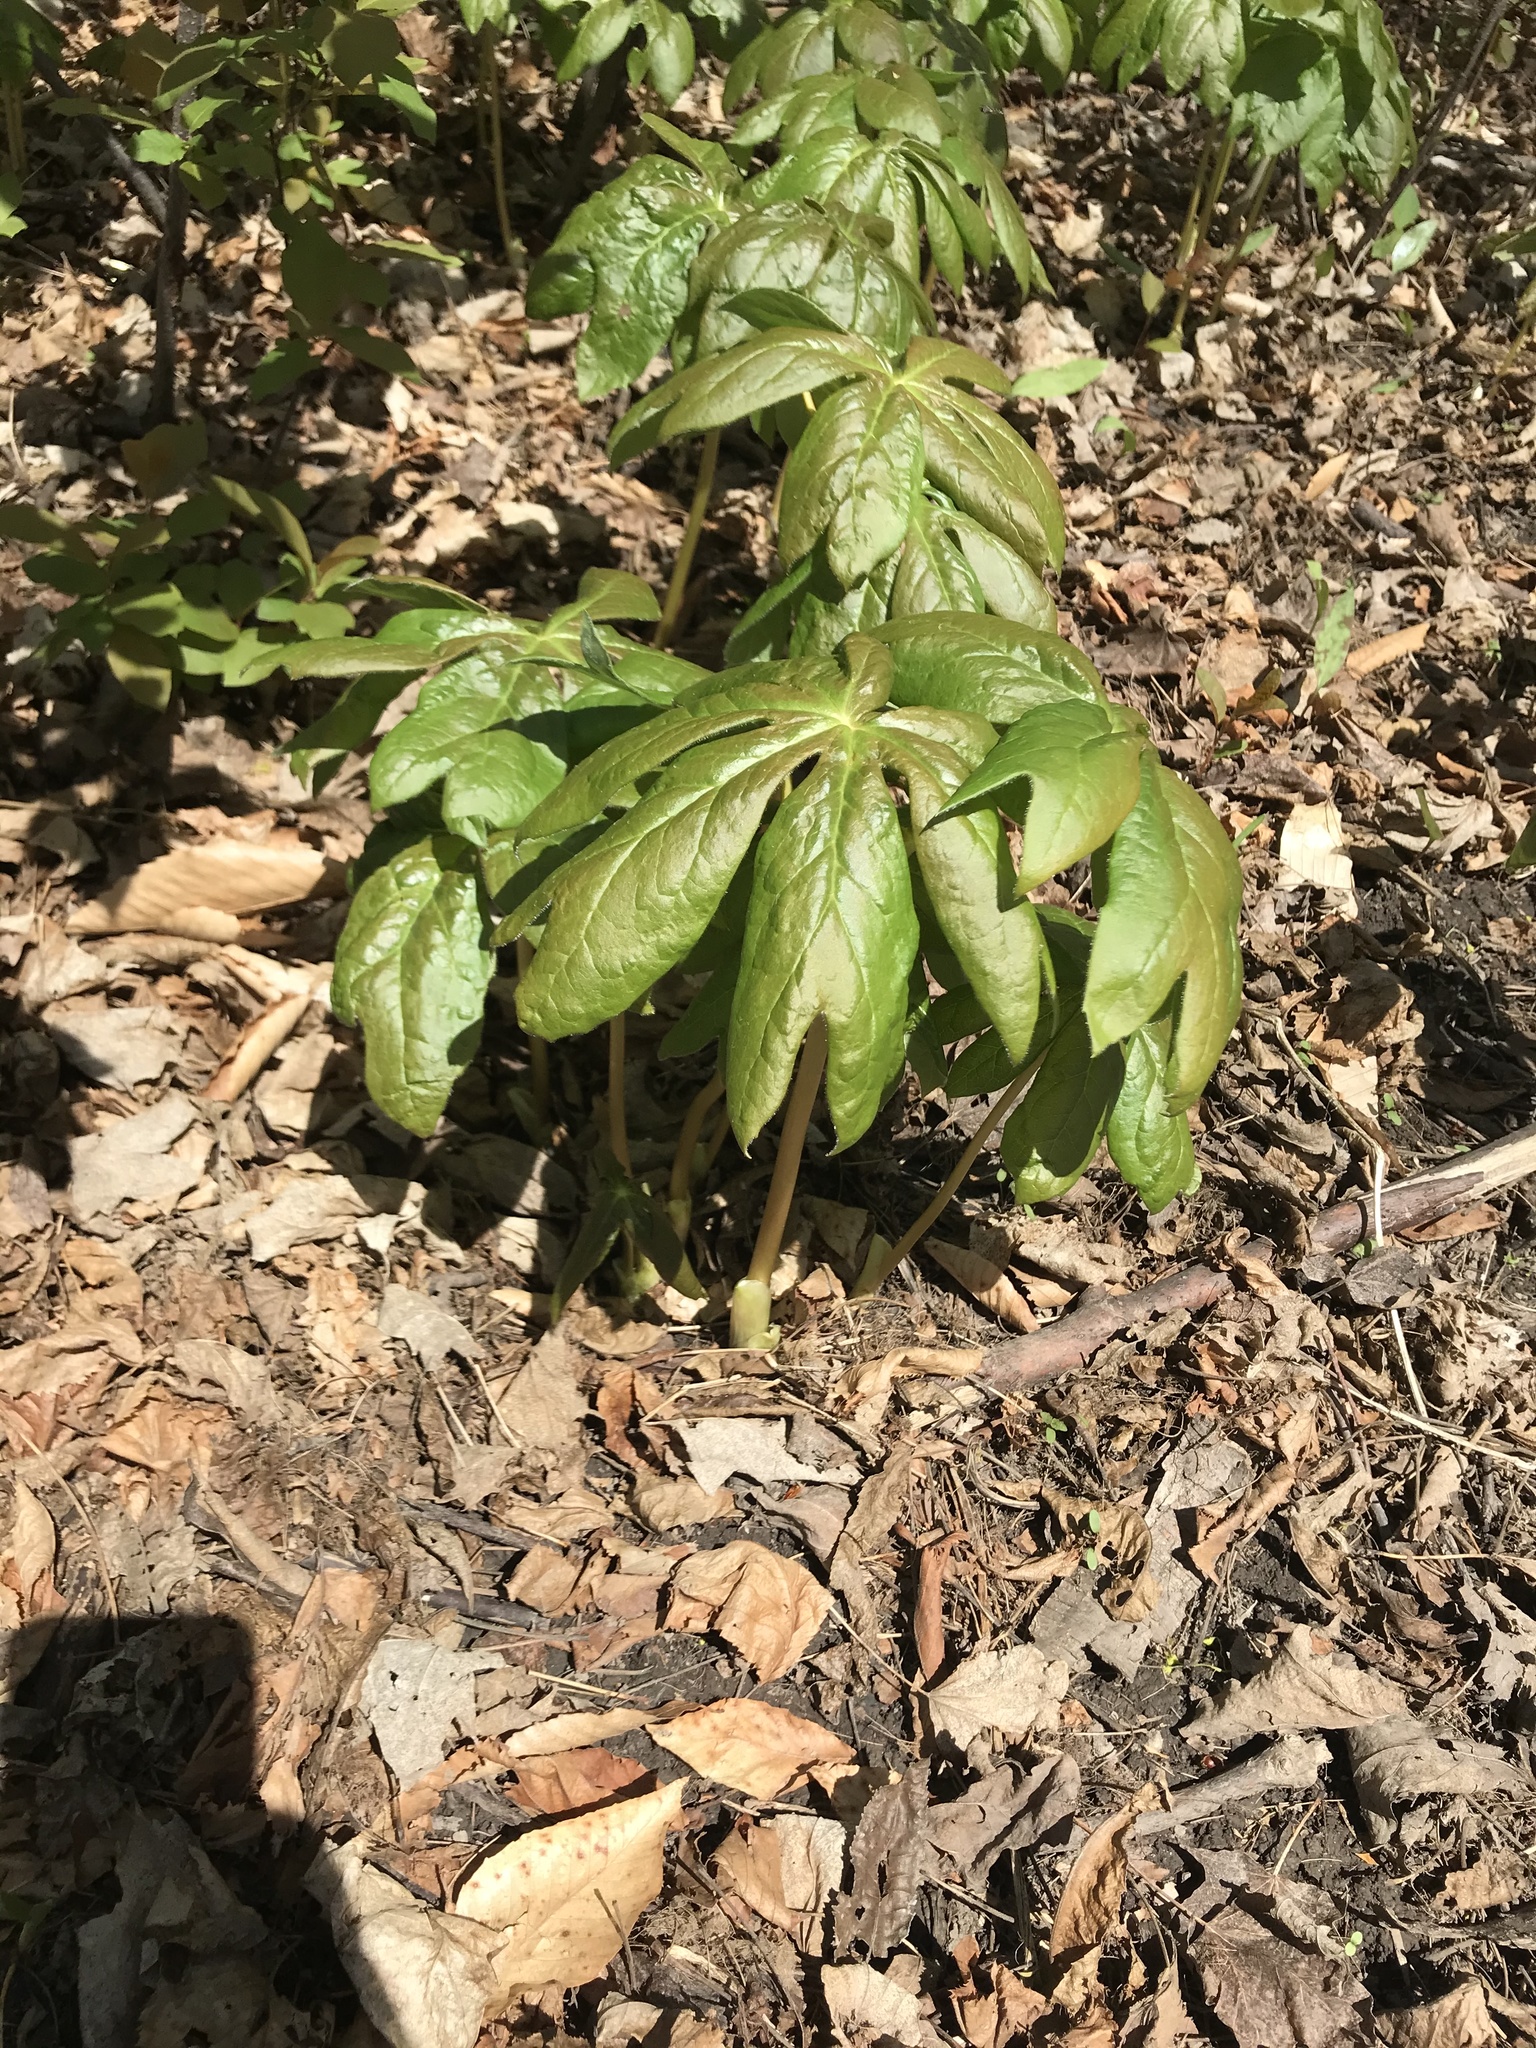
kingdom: Plantae
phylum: Tracheophyta
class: Magnoliopsida
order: Ranunculales
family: Berberidaceae
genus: Podophyllum
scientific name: Podophyllum peltatum
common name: Wild mandrake
